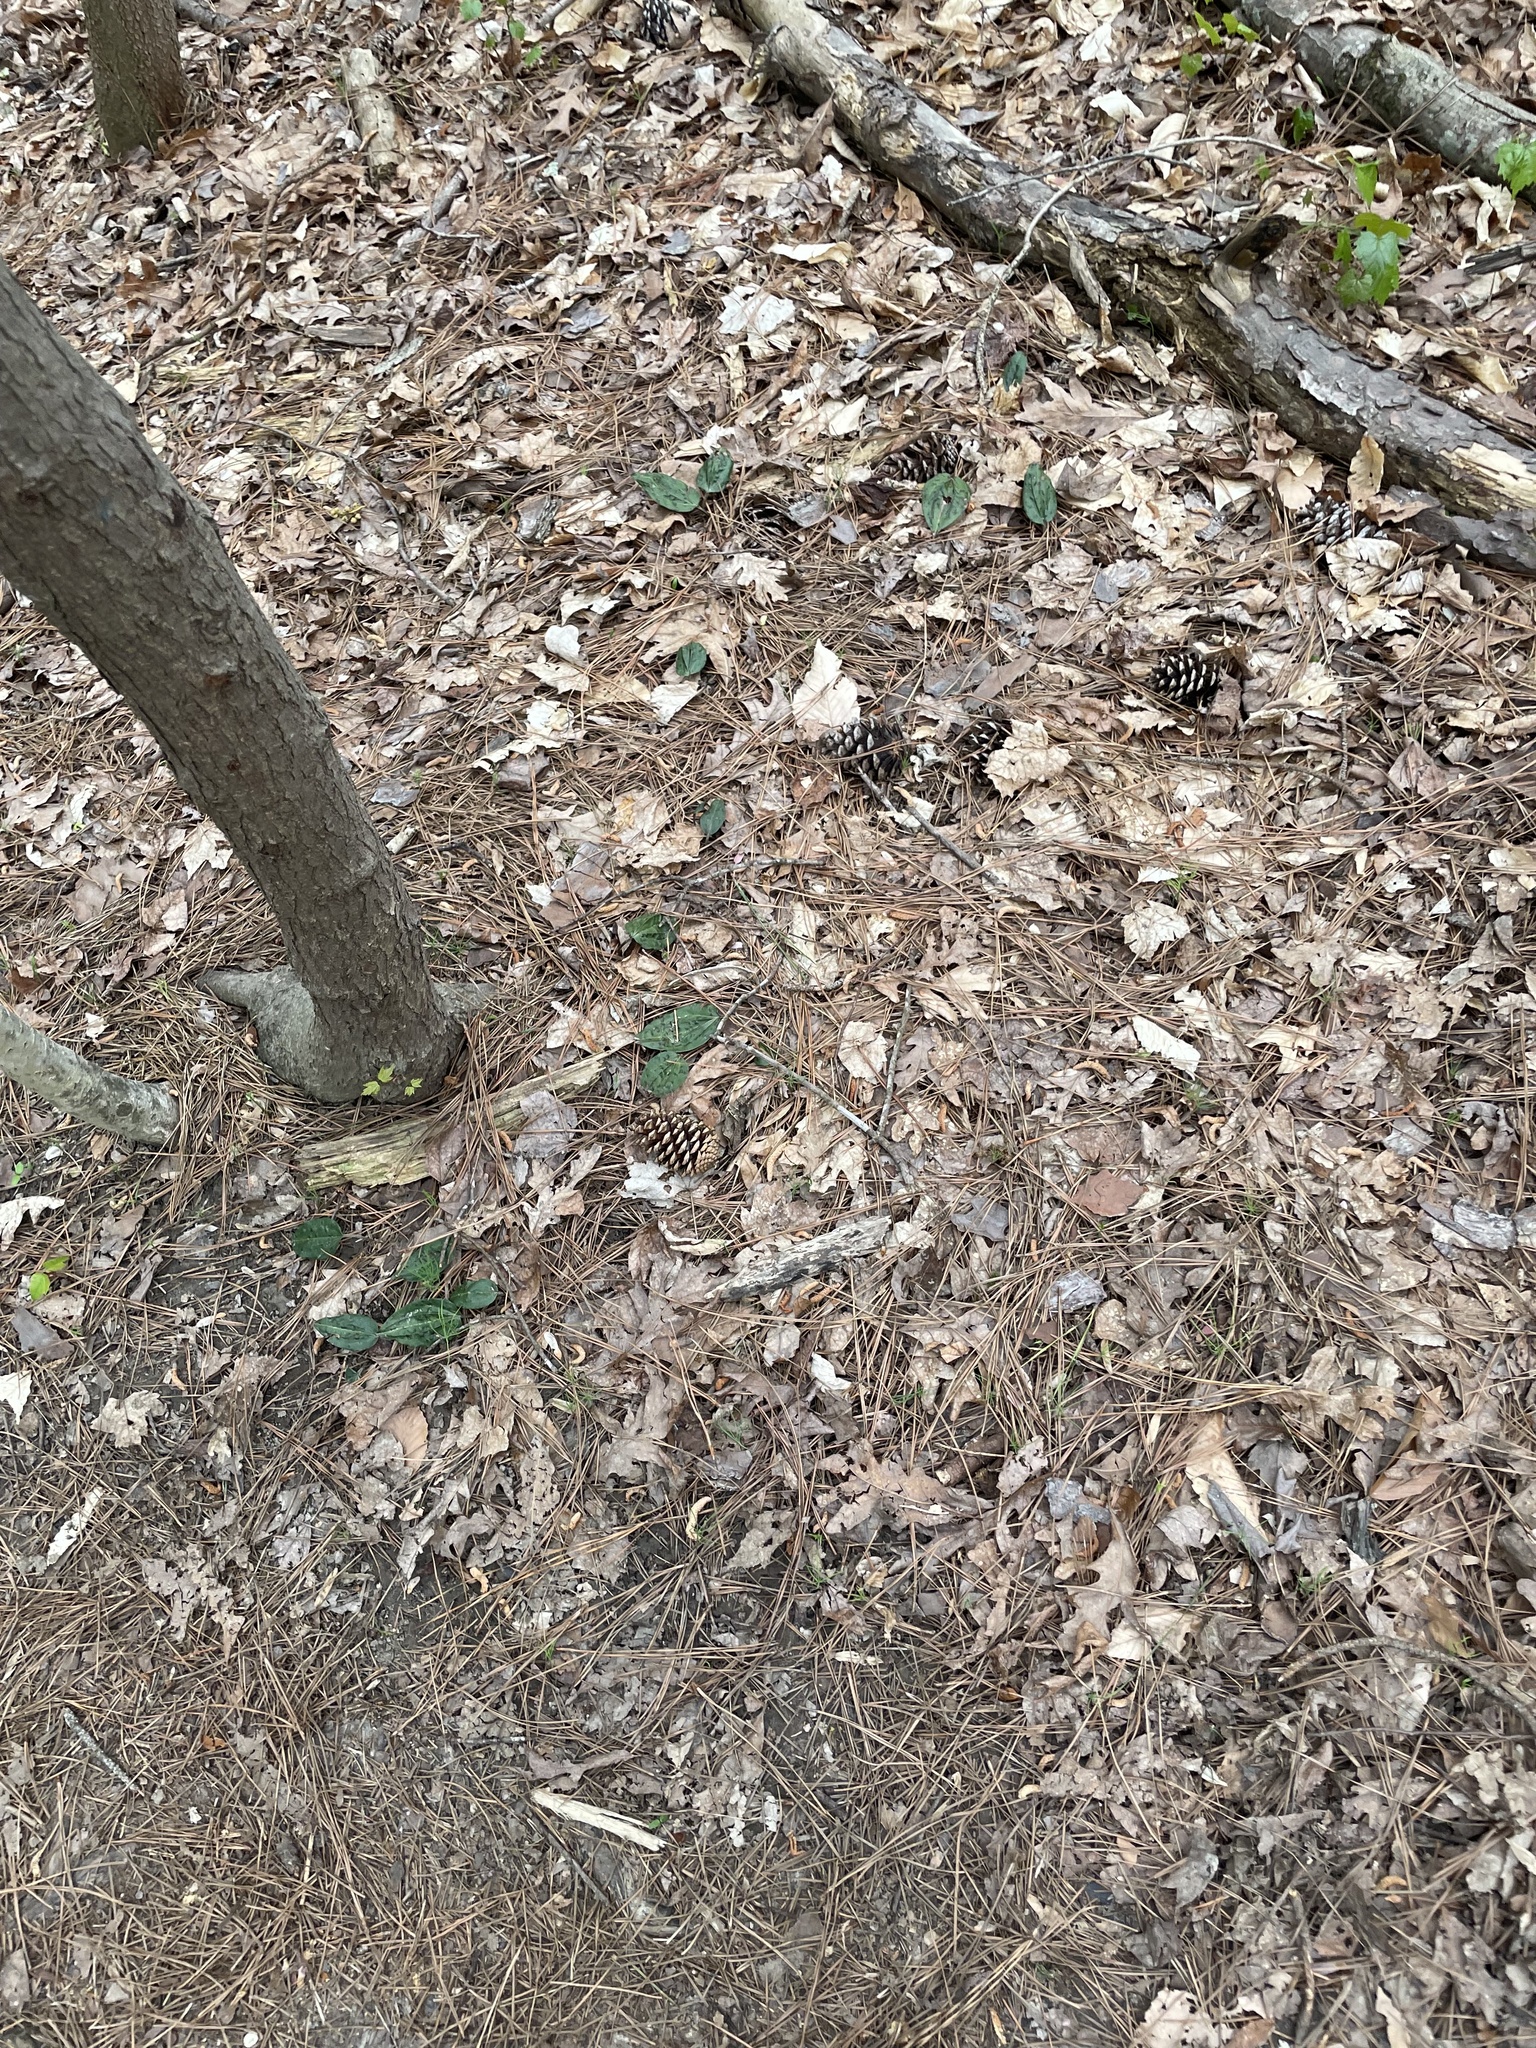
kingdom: Plantae
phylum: Tracheophyta
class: Liliopsida
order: Asparagales
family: Orchidaceae
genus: Tipularia
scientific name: Tipularia discolor
